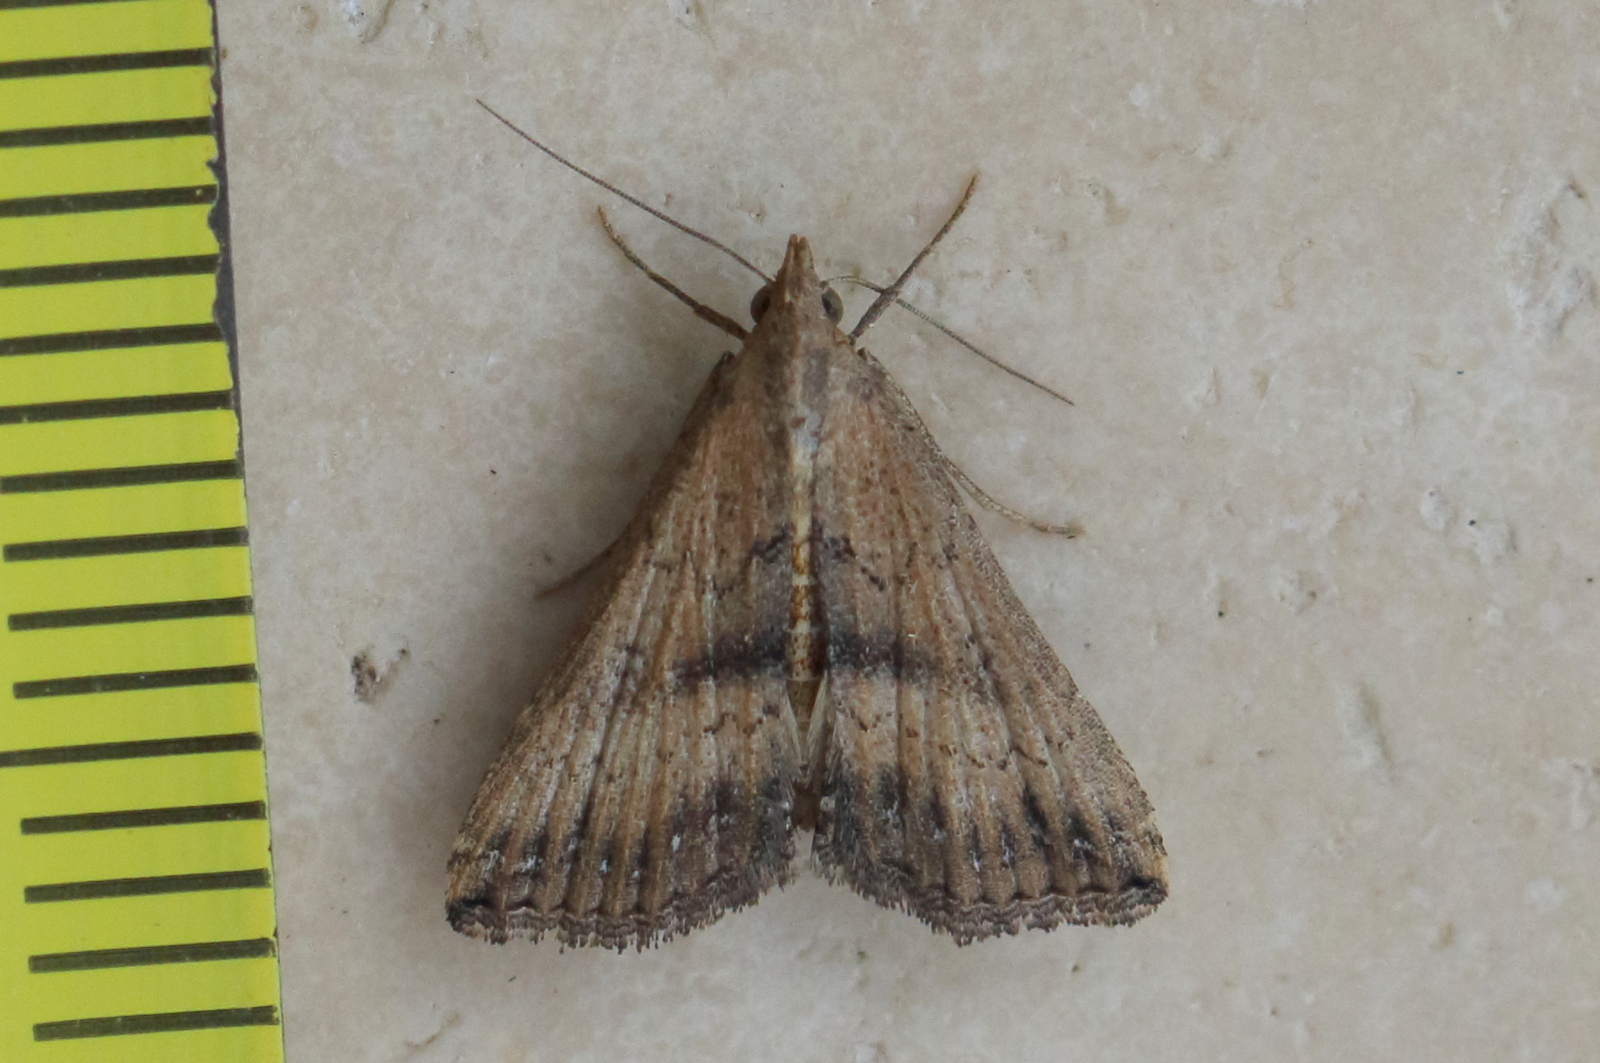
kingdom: Animalia
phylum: Arthropoda
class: Insecta
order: Lepidoptera
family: Erebidae
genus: Hypena
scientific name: Hypena umbrifera
